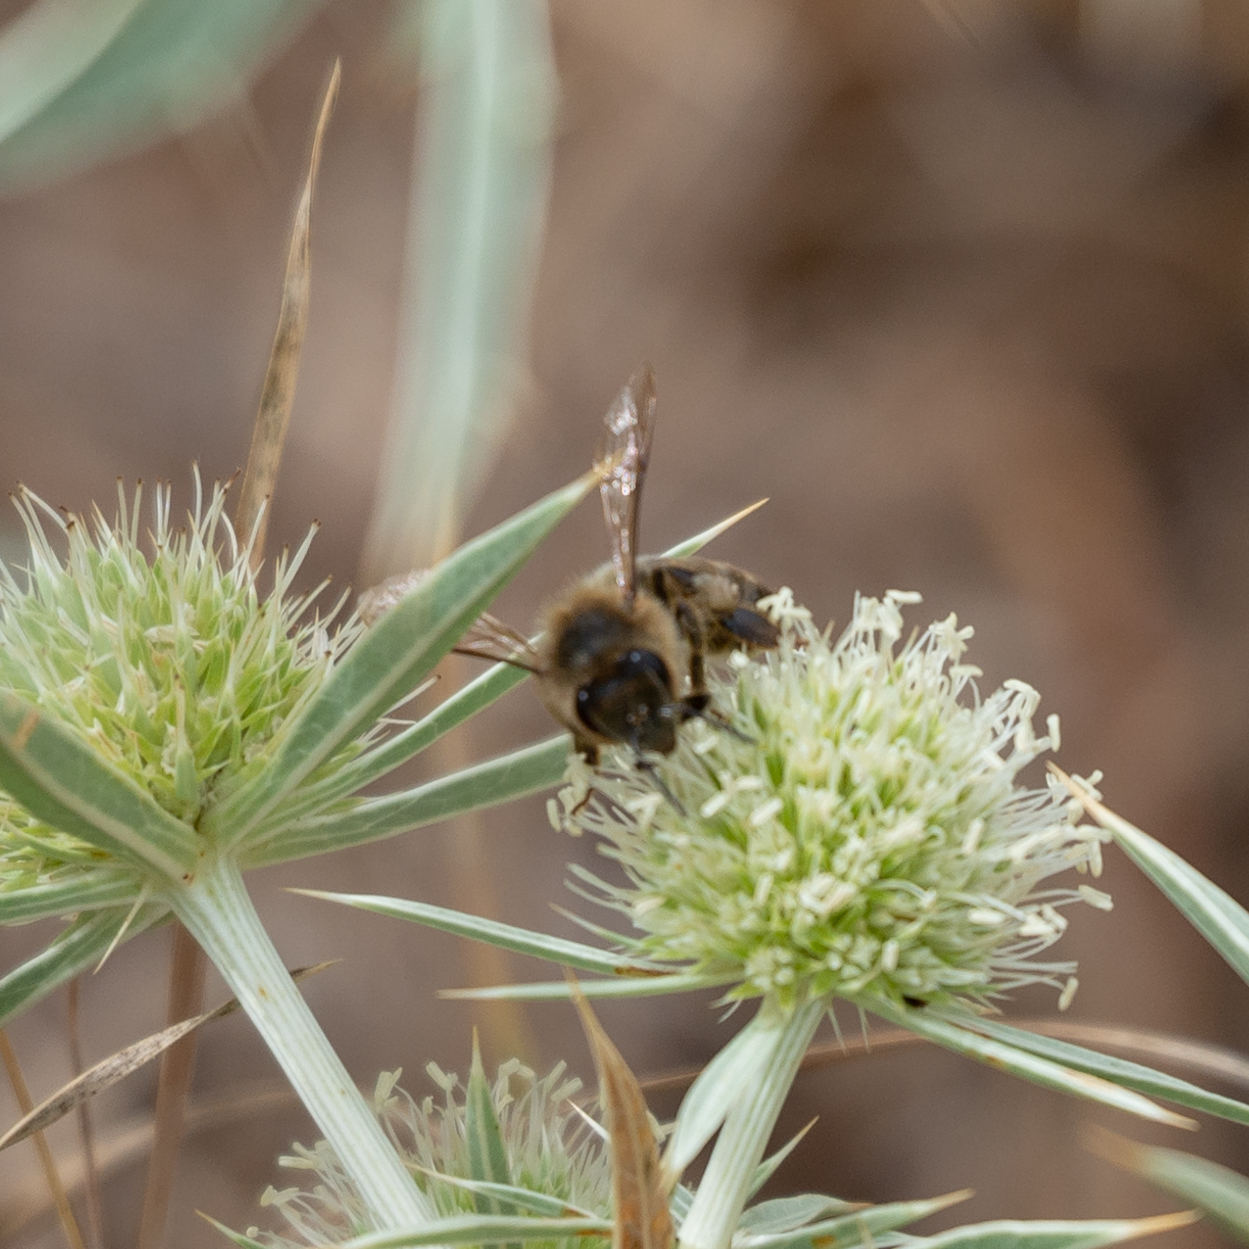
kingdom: Animalia
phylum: Arthropoda
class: Insecta
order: Hymenoptera
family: Apidae
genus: Apis
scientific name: Apis mellifera
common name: Honey bee
